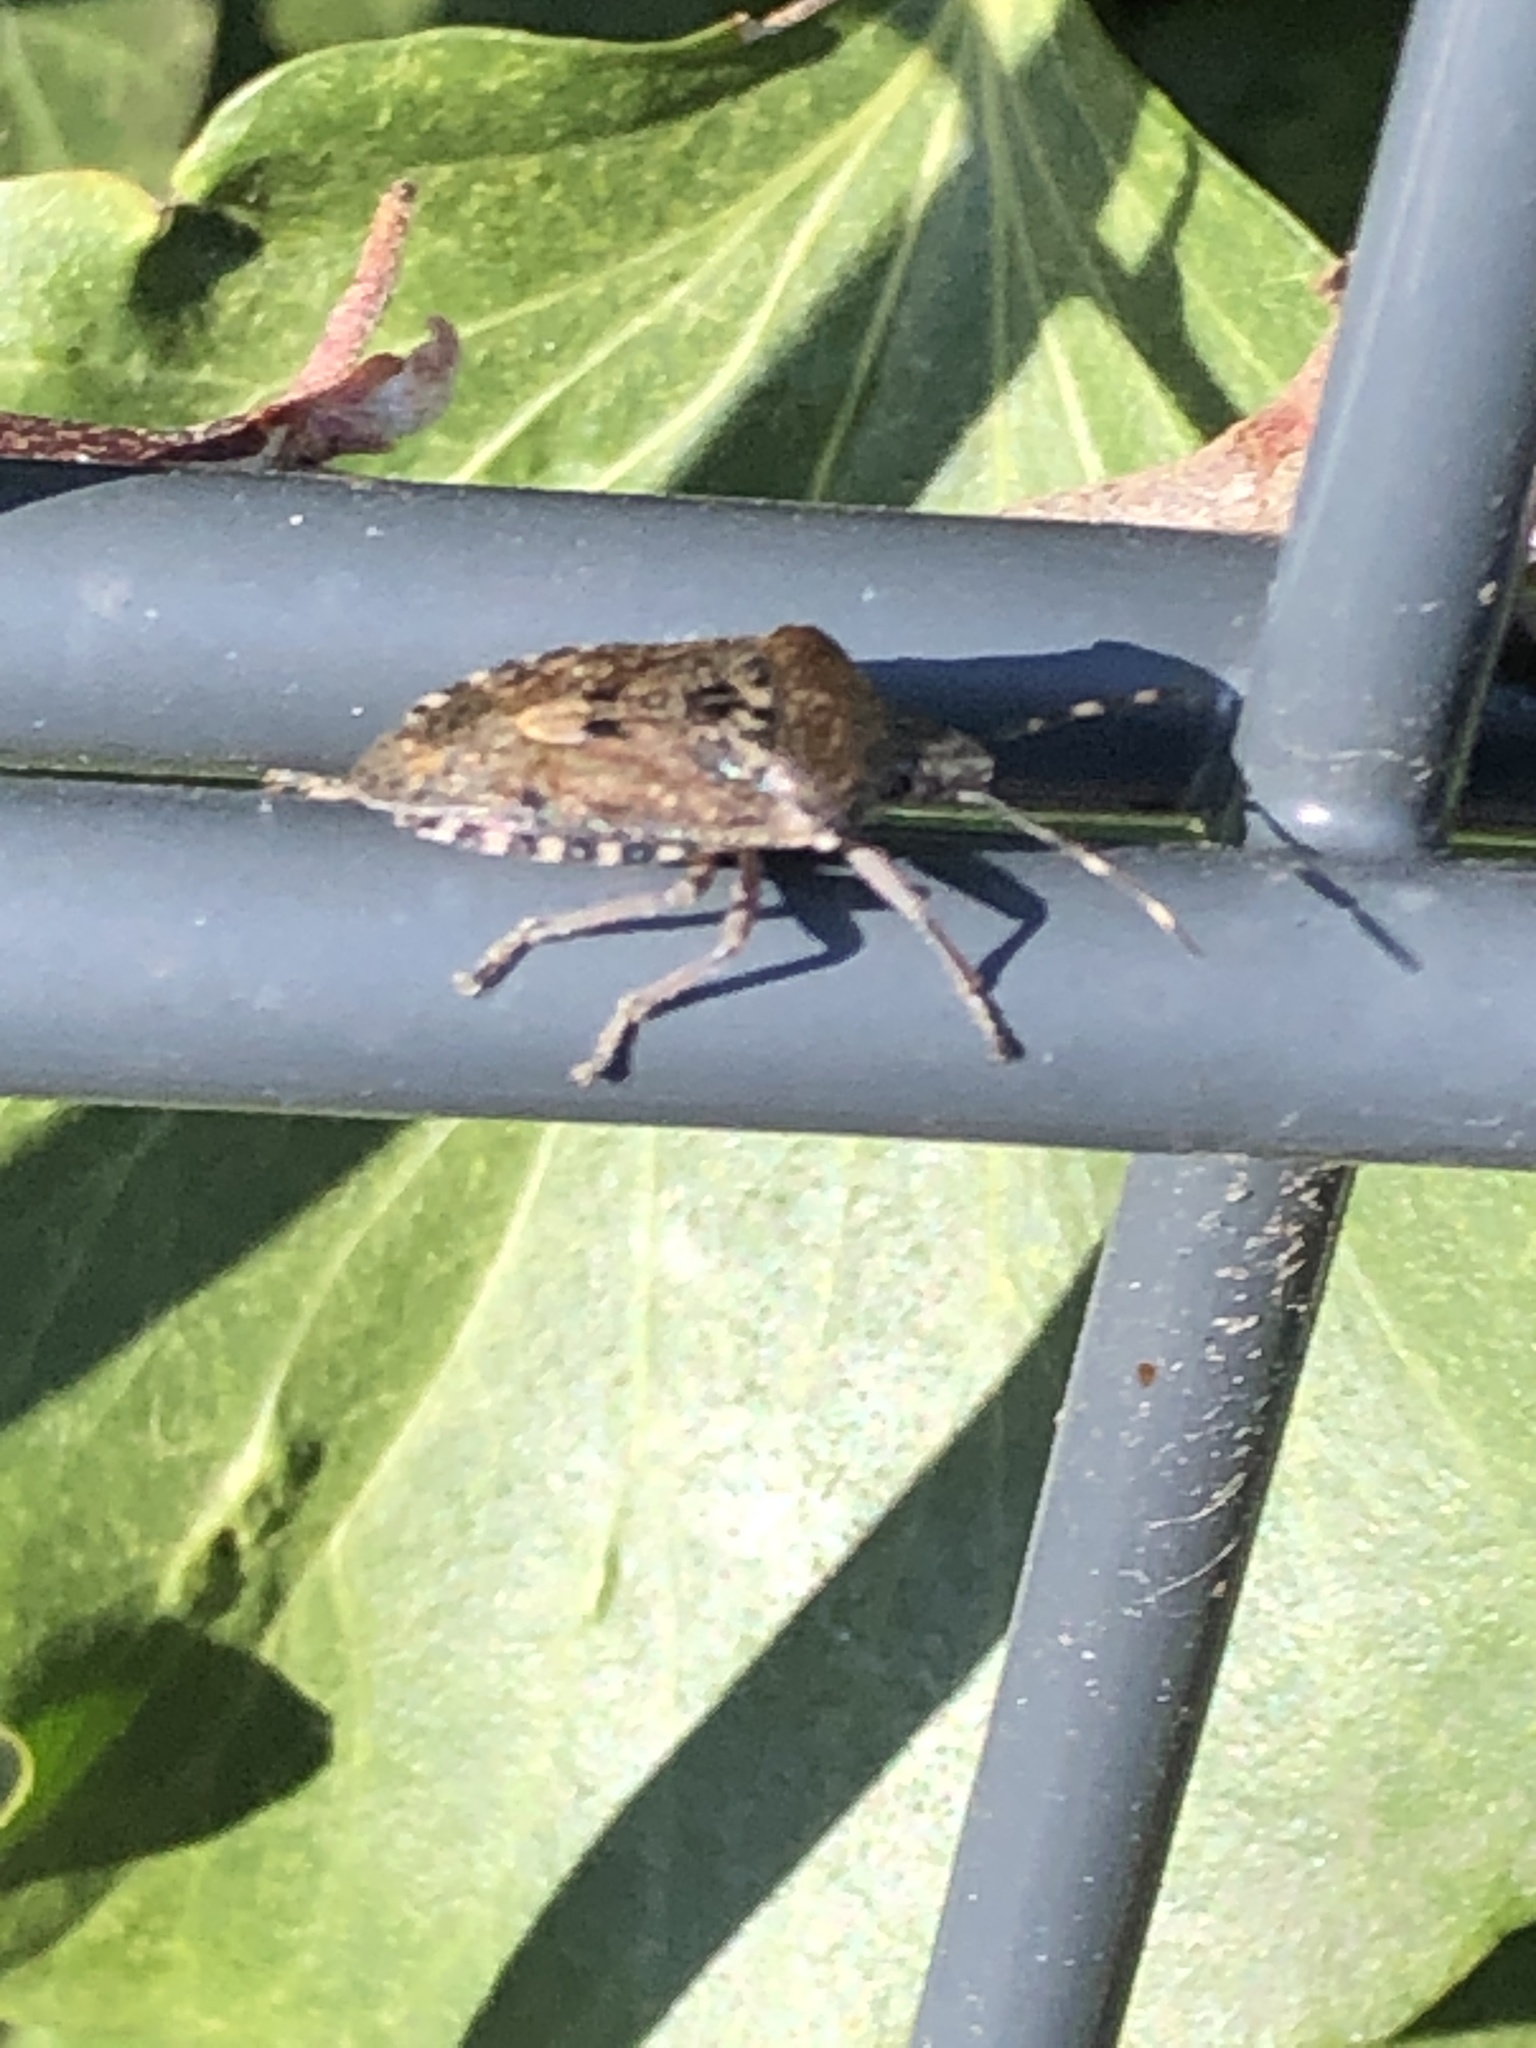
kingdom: Animalia
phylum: Arthropoda
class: Insecta
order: Hemiptera
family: Pentatomidae
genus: Rhaphigaster
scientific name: Rhaphigaster nebulosa
